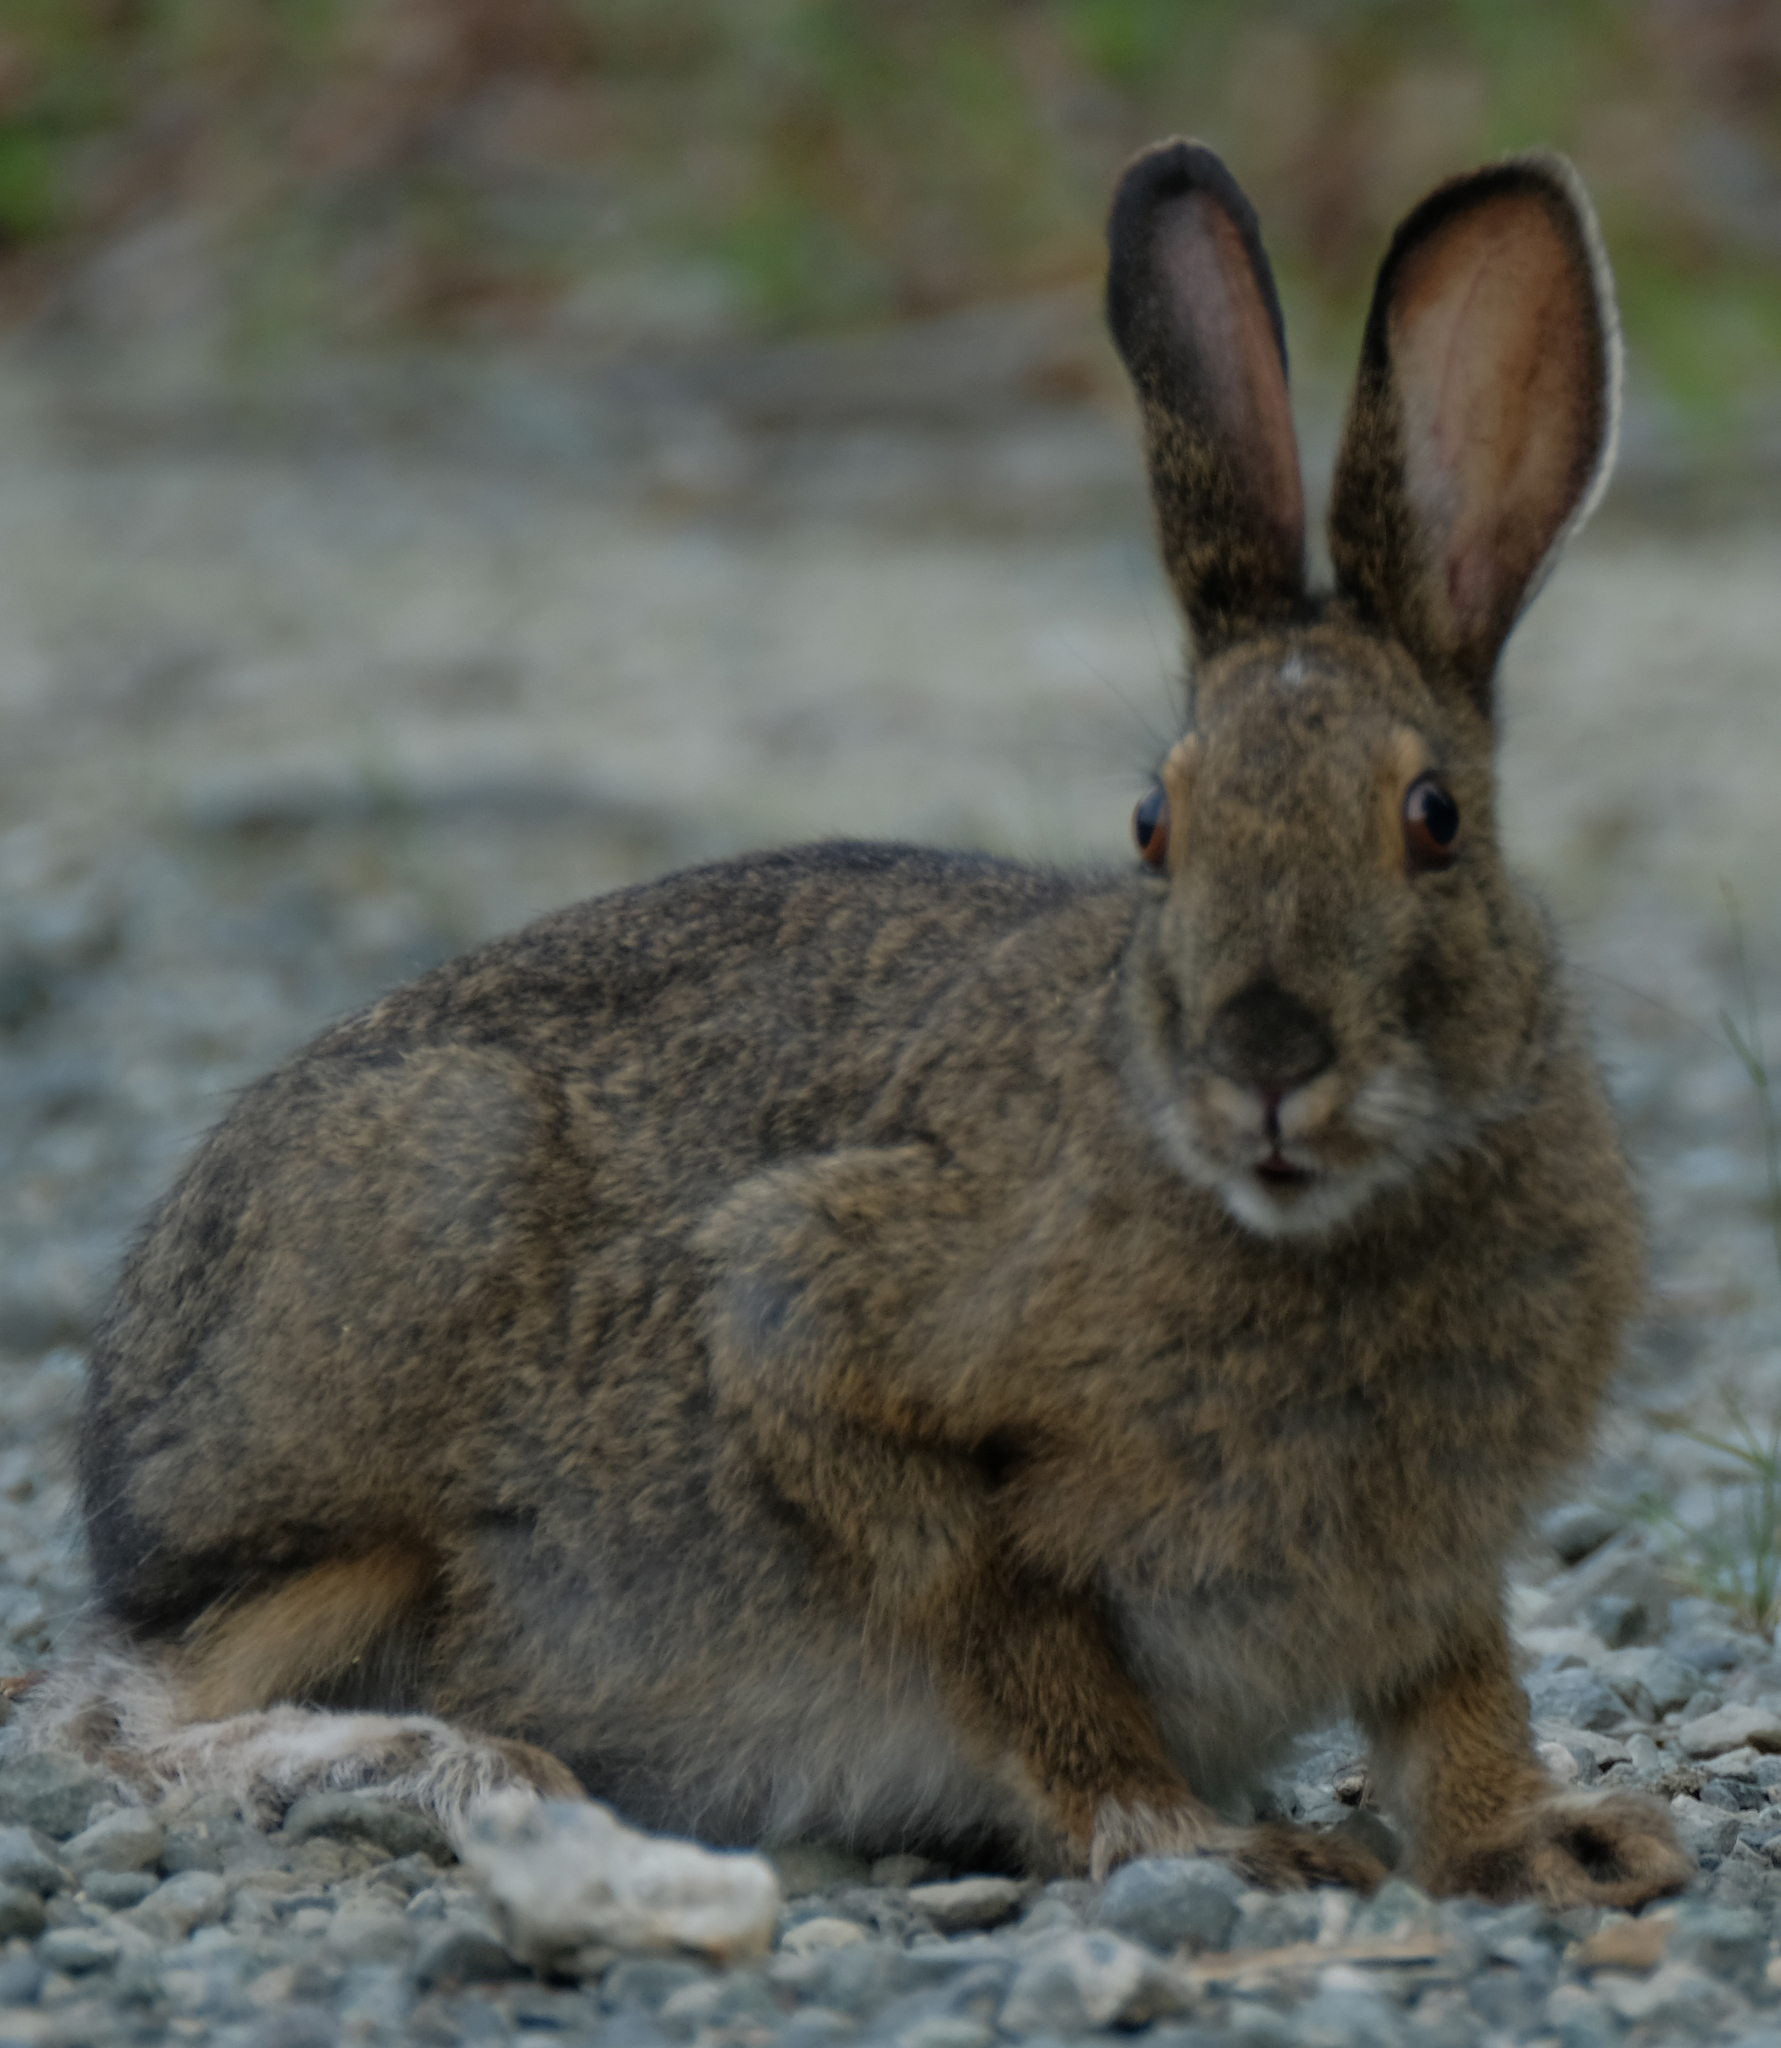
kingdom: Animalia
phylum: Chordata
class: Mammalia
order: Lagomorpha
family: Leporidae
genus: Lepus
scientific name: Lepus americanus
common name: Snowshoe hare
